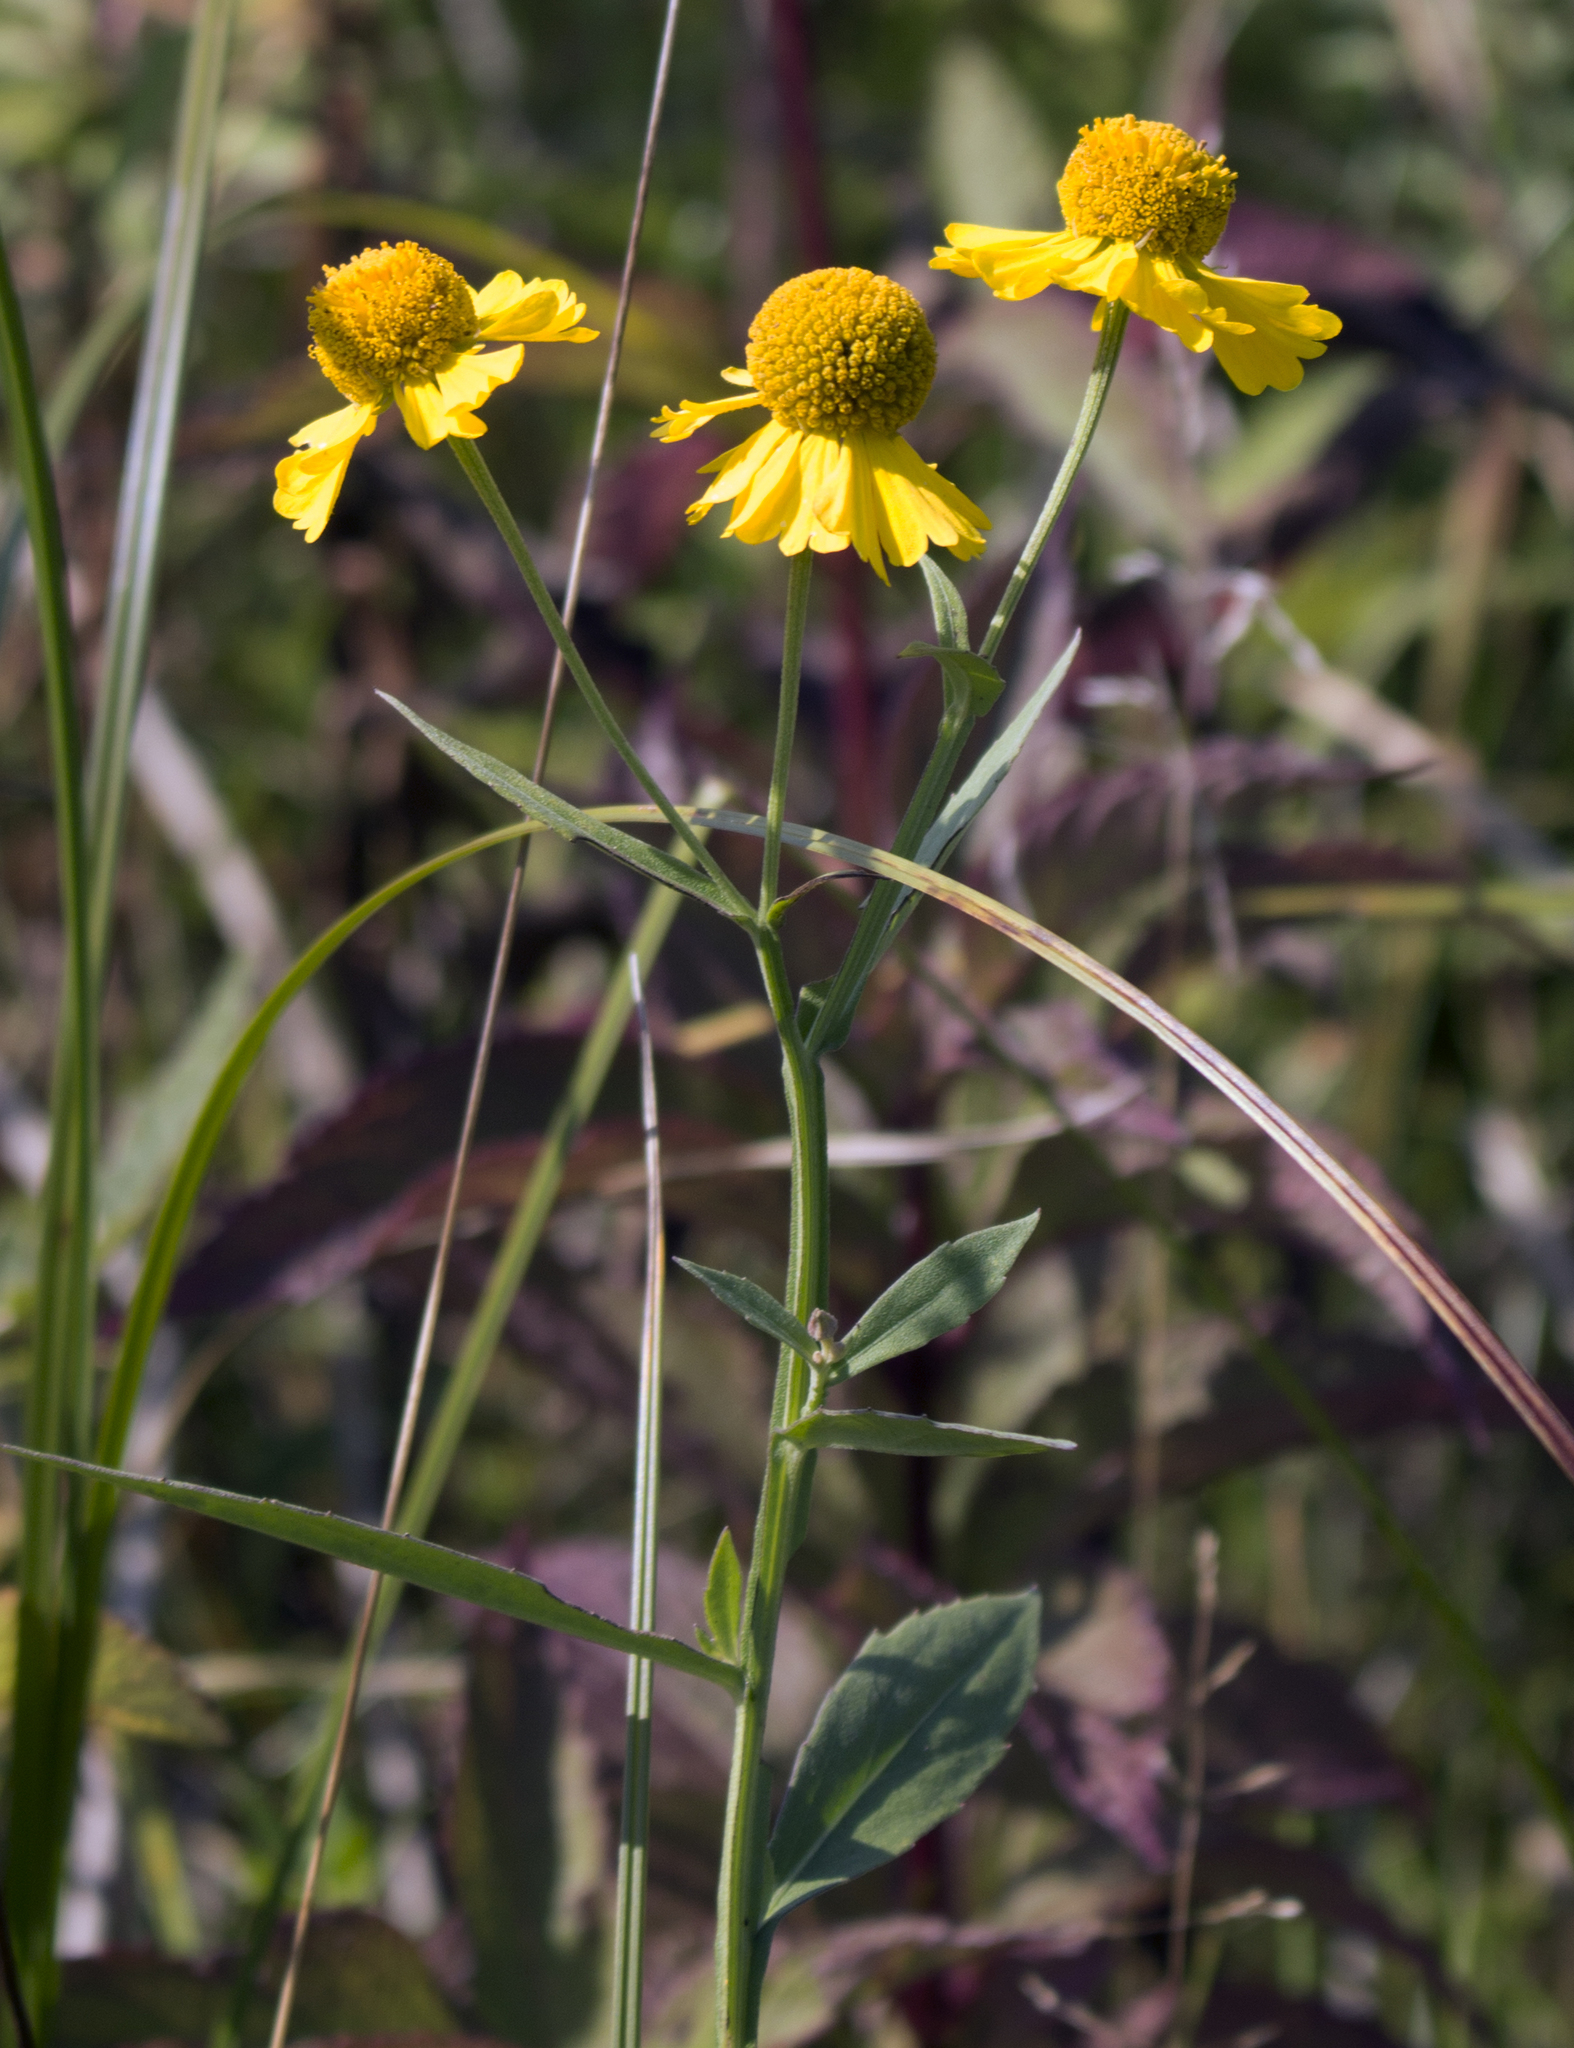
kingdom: Plantae
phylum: Tracheophyta
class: Magnoliopsida
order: Asterales
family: Asteraceae
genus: Helenium
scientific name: Helenium autumnale
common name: Sneezeweed
